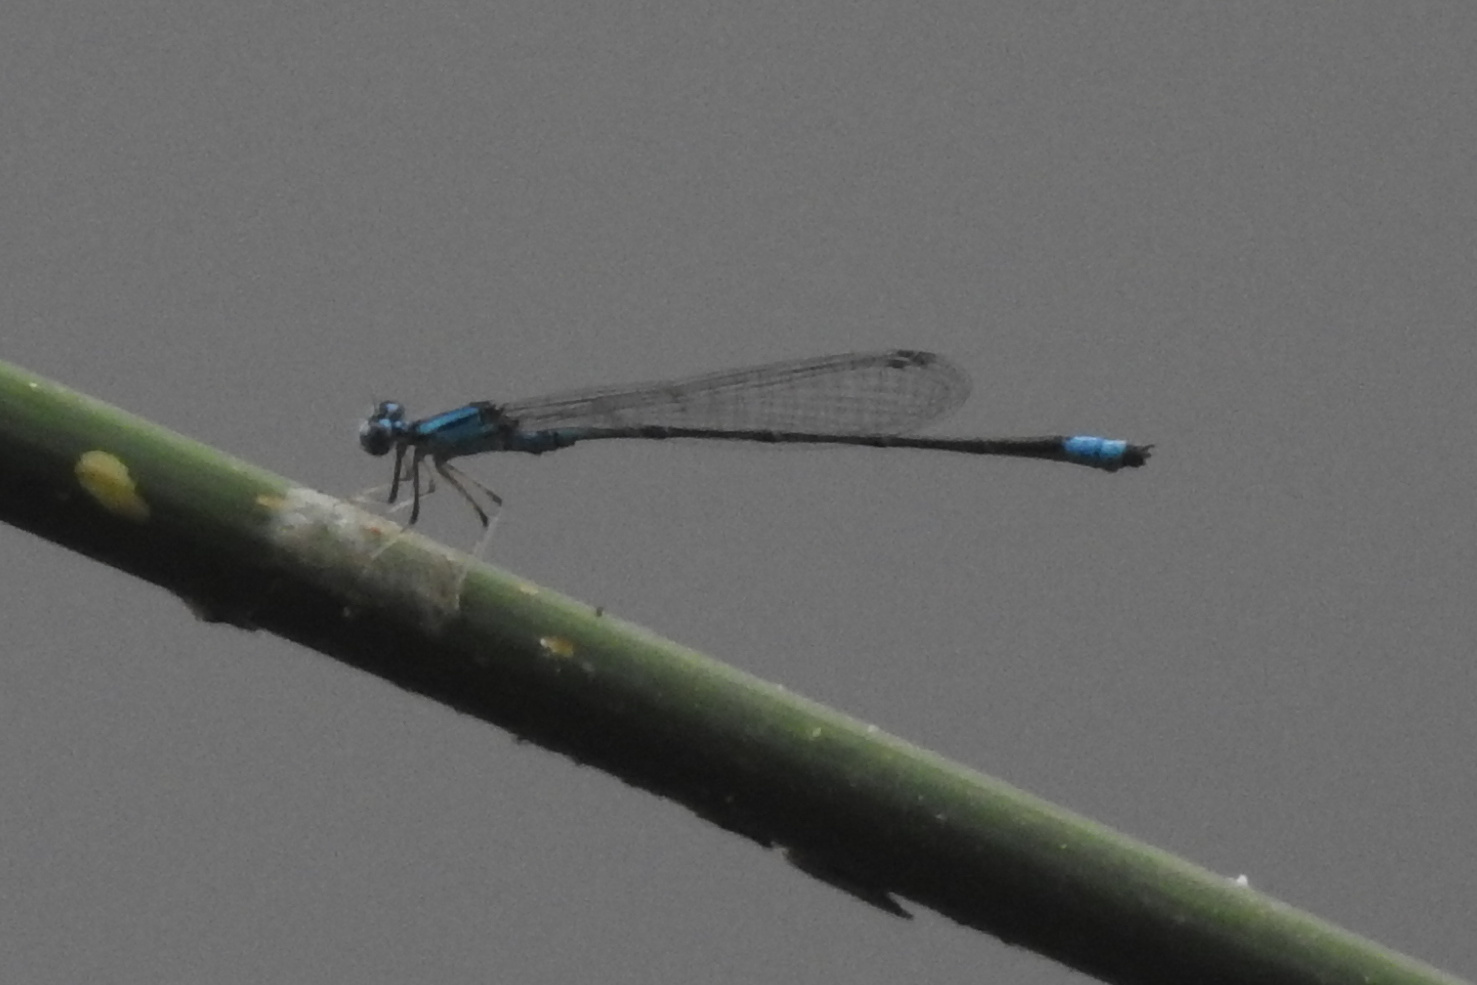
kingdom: Animalia
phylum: Arthropoda
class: Insecta
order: Odonata
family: Coenagrionidae
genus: Enallagma
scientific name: Enallagma traviatum
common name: Slender bluet
